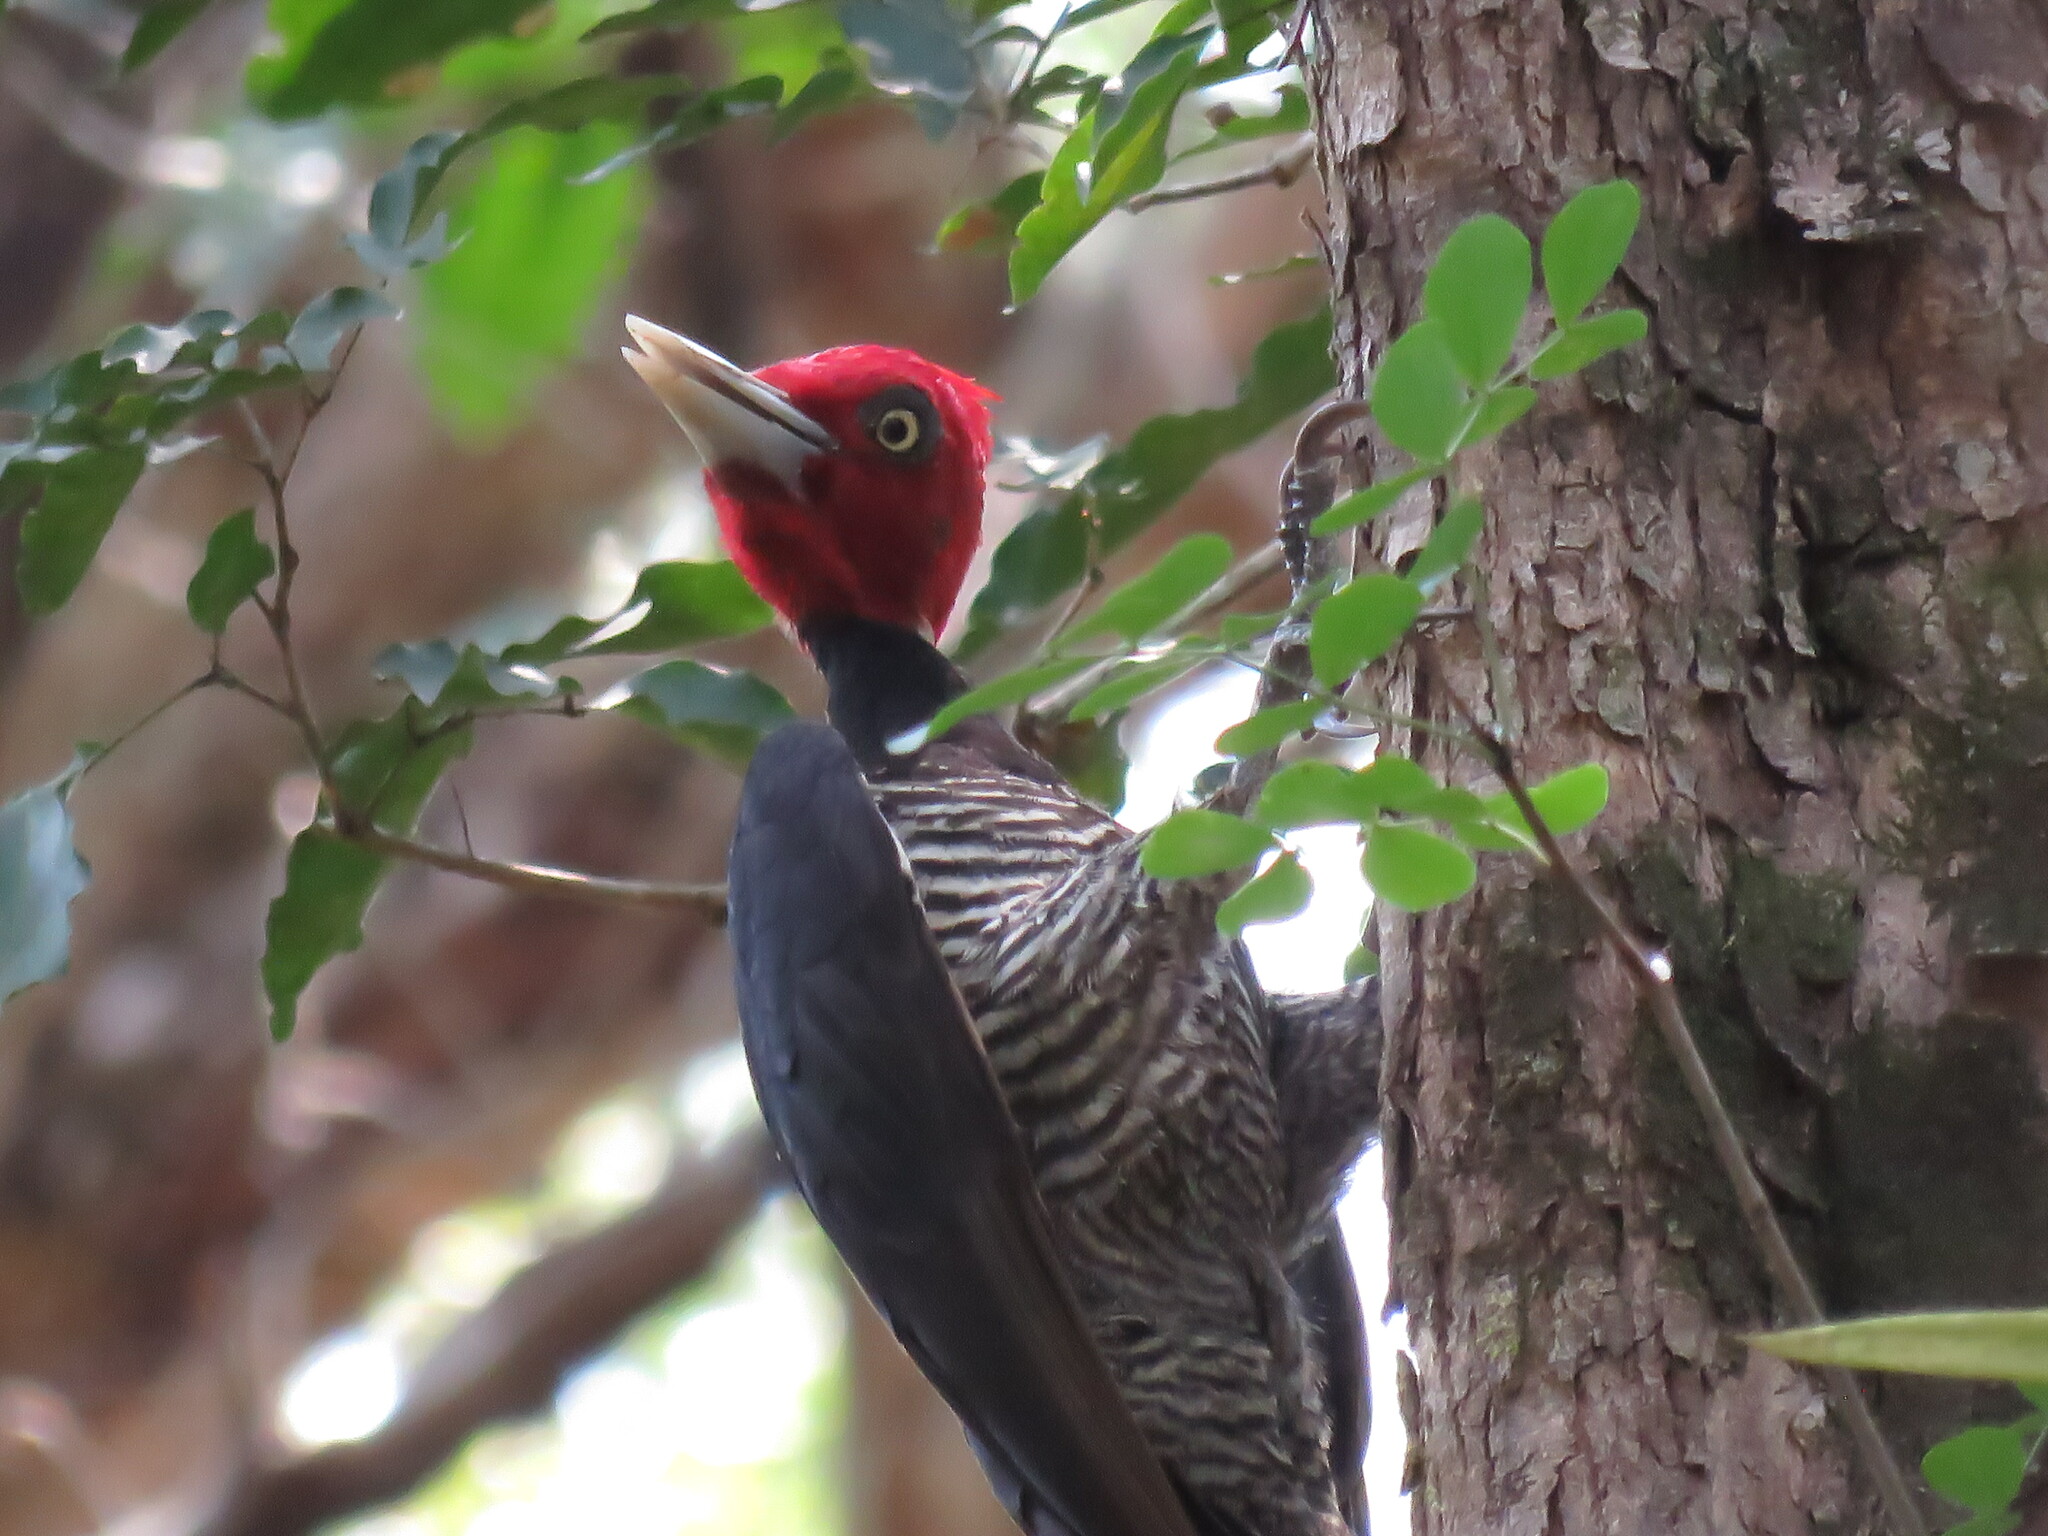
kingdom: Animalia
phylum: Chordata
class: Aves
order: Piciformes
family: Picidae
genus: Campephilus
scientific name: Campephilus guatemalensis
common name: Pale-billed woodpecker
